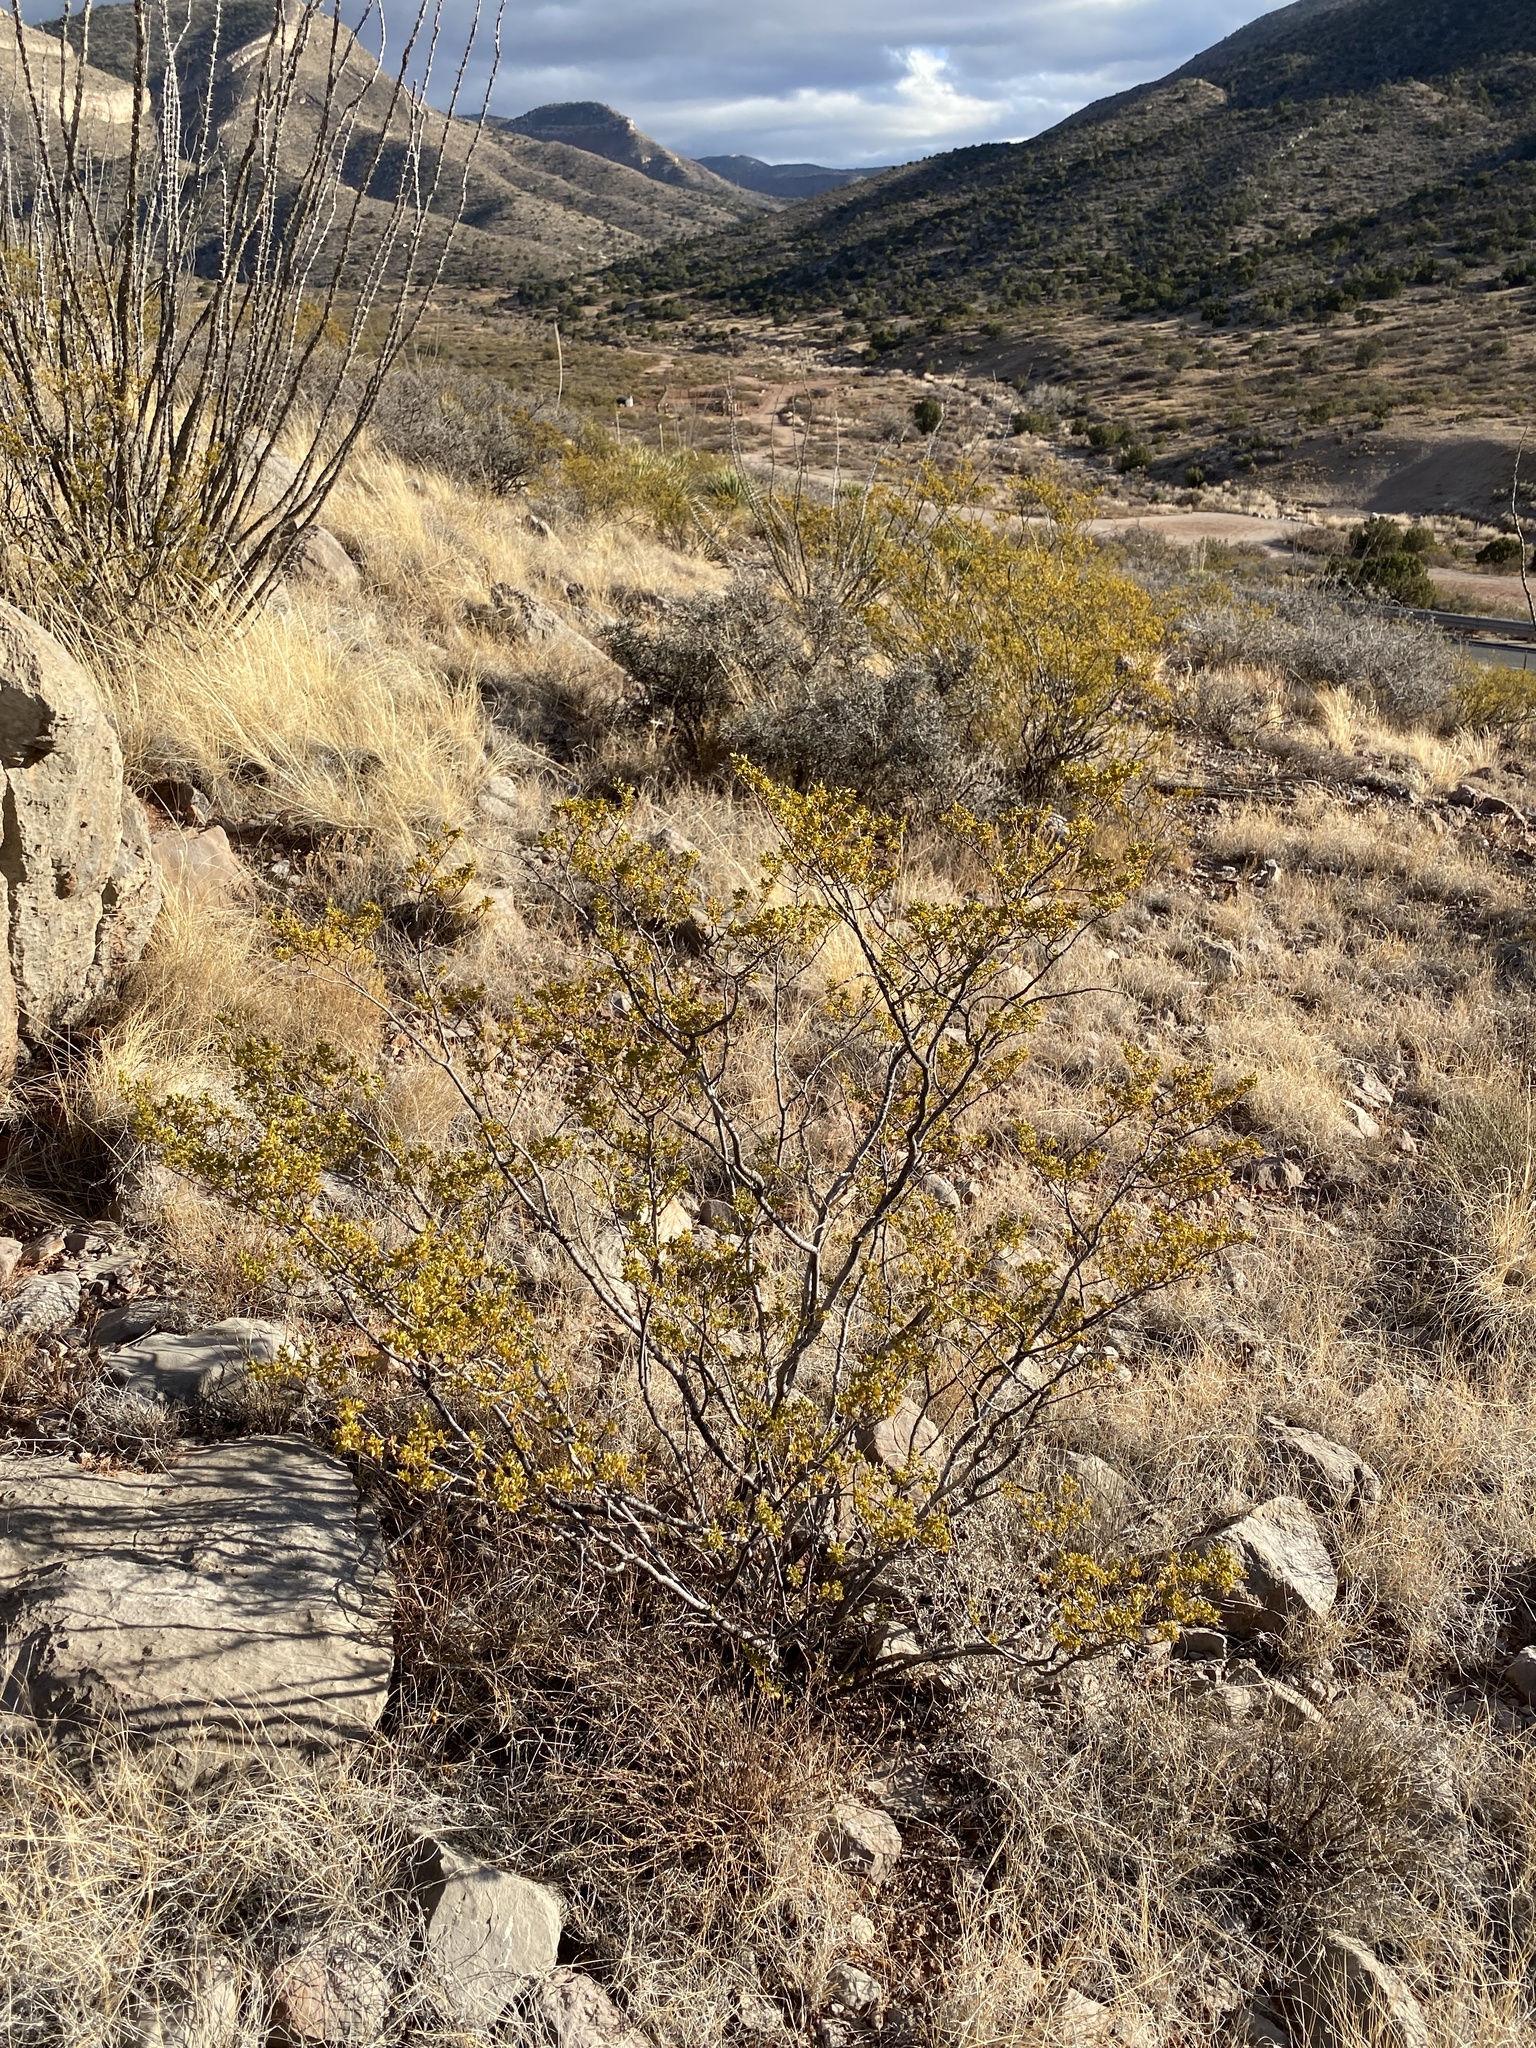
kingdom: Plantae
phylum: Tracheophyta
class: Magnoliopsida
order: Zygophyllales
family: Zygophyllaceae
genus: Larrea
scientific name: Larrea tridentata
